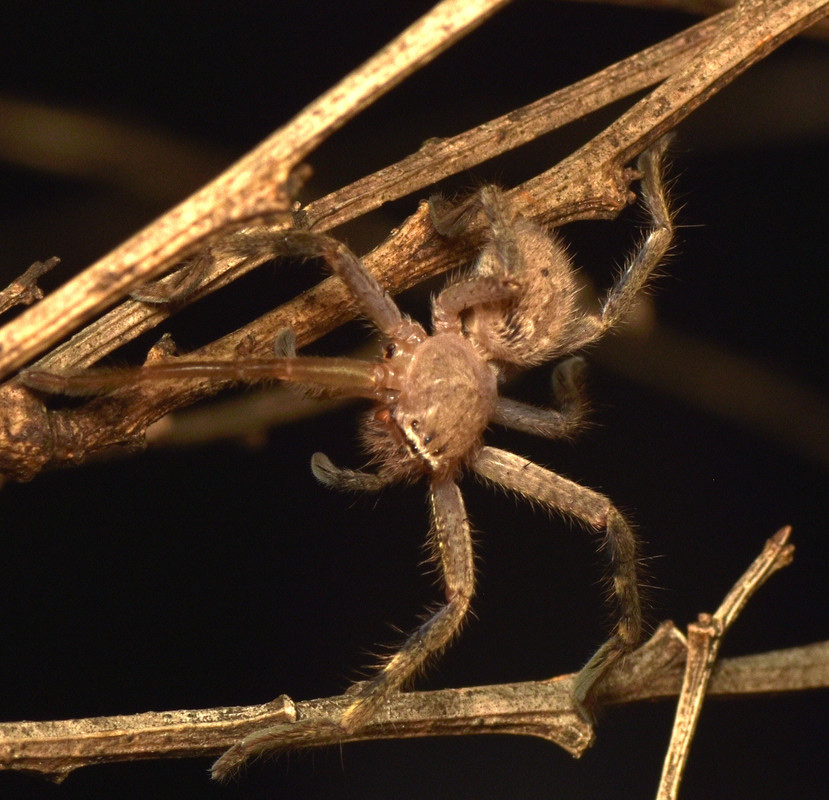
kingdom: Animalia
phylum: Arthropoda
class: Arachnida
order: Araneae
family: Sparassidae
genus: Neosparassus
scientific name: Neosparassus calligaster
